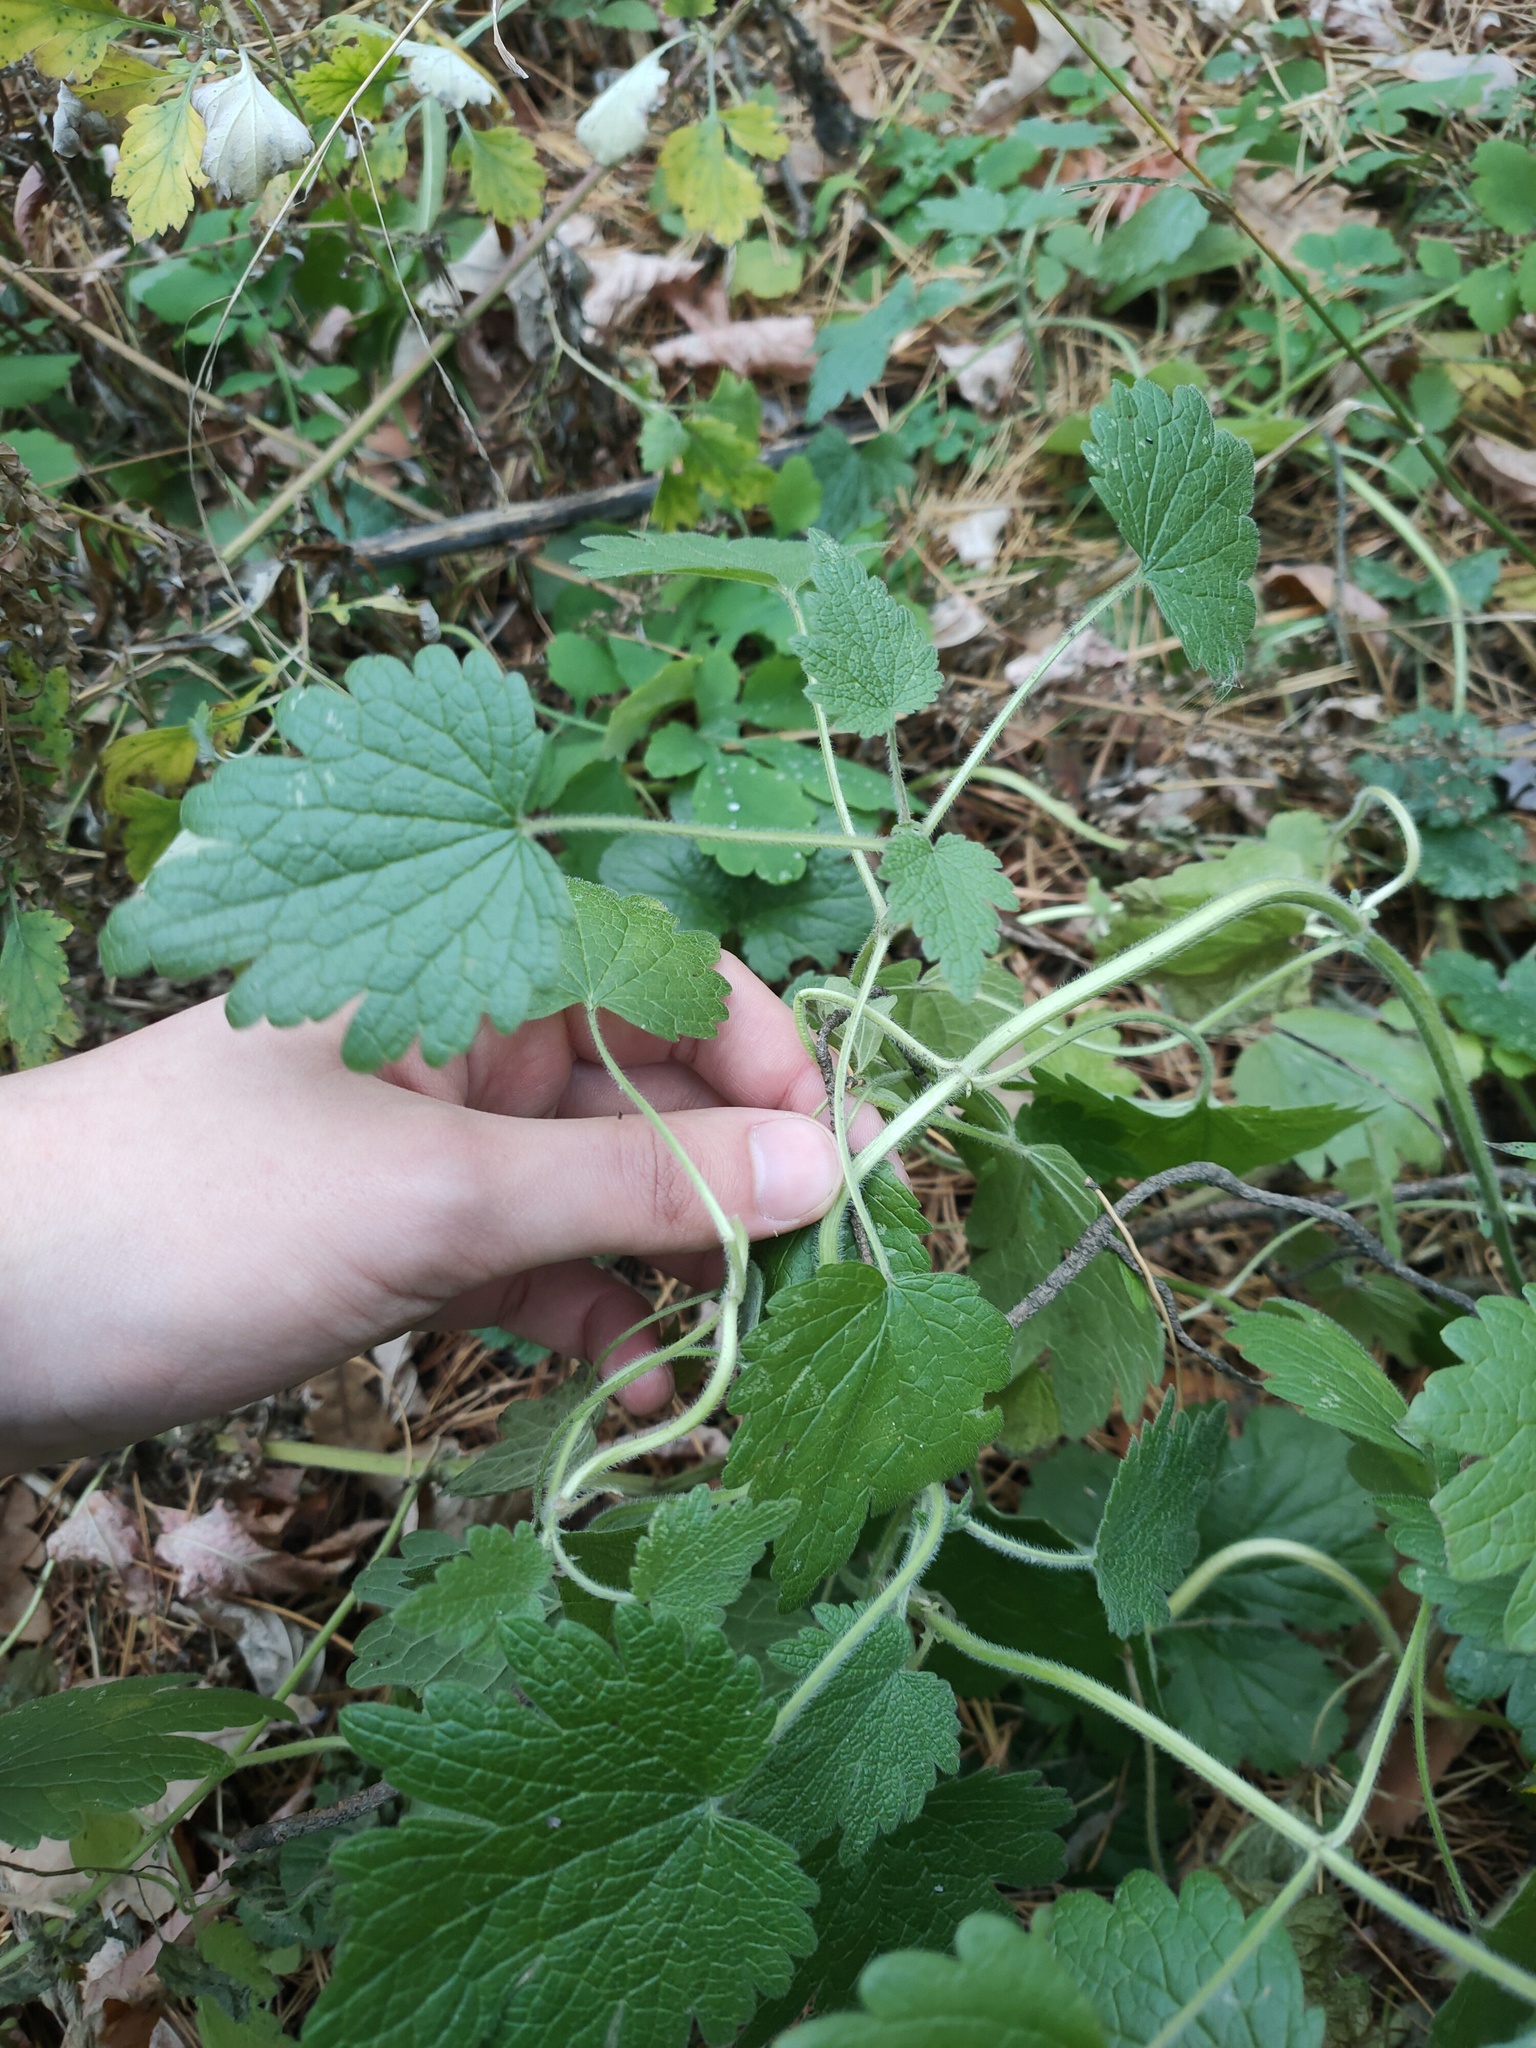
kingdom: Plantae
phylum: Tracheophyta
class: Magnoliopsida
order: Lamiales
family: Lamiaceae
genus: Leonurus
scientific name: Leonurus quinquelobatus
